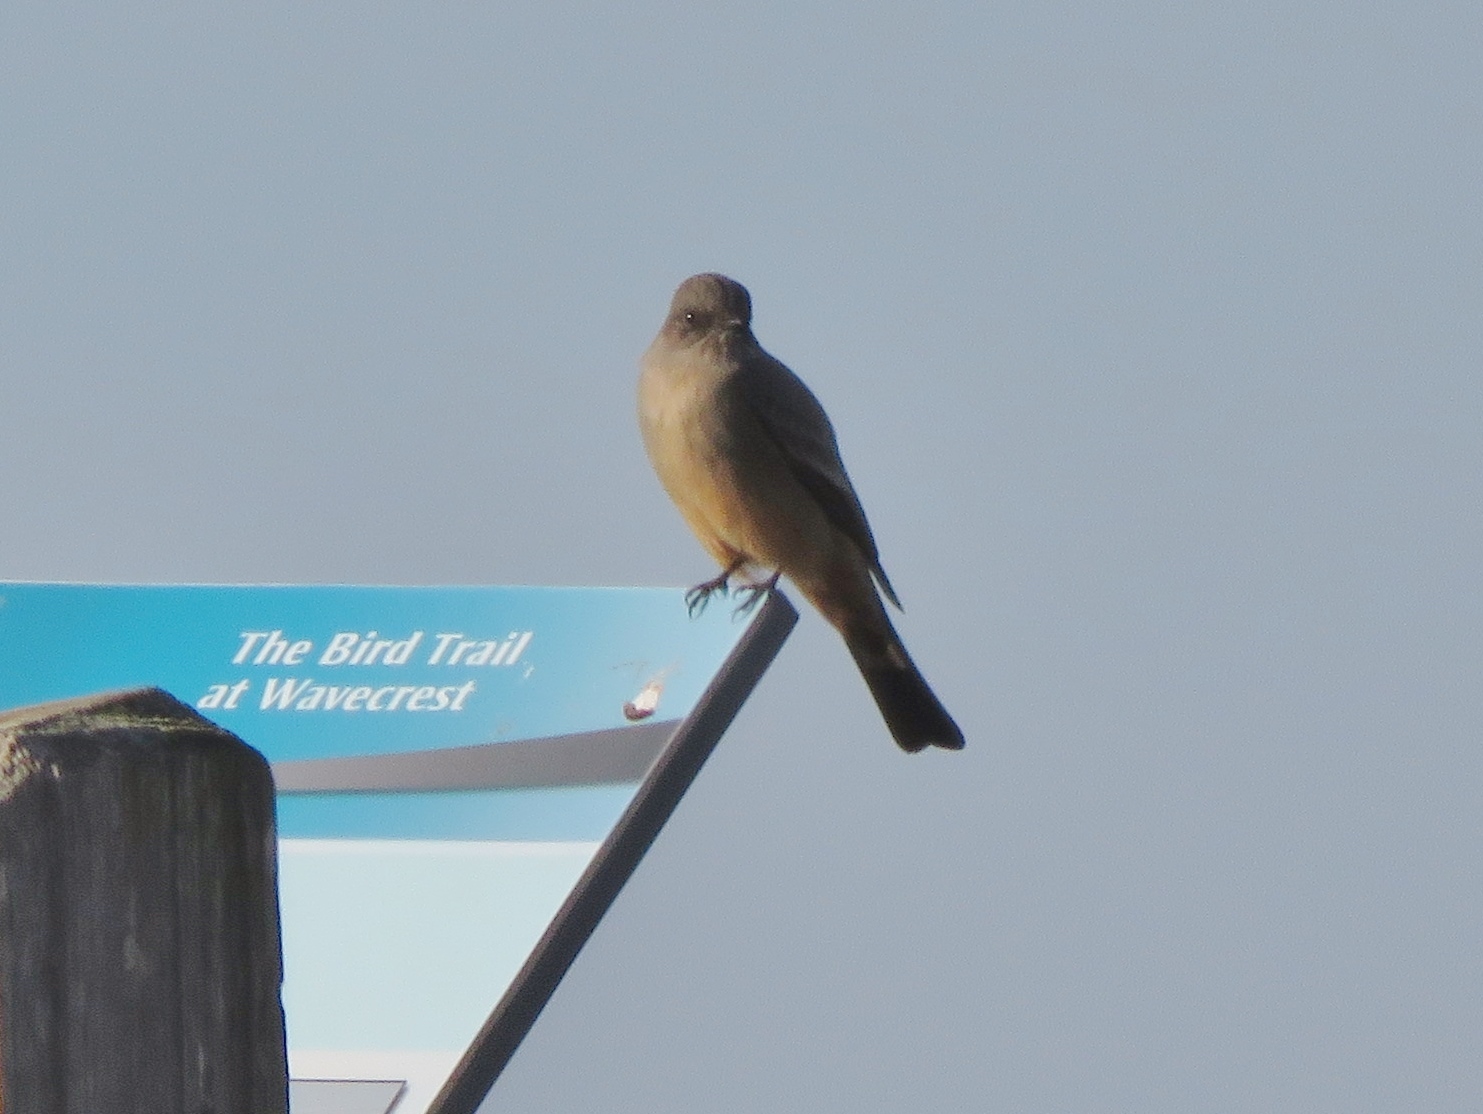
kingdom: Animalia
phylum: Chordata
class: Aves
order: Passeriformes
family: Tyrannidae
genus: Sayornis
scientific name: Sayornis saya
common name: Say's phoebe
